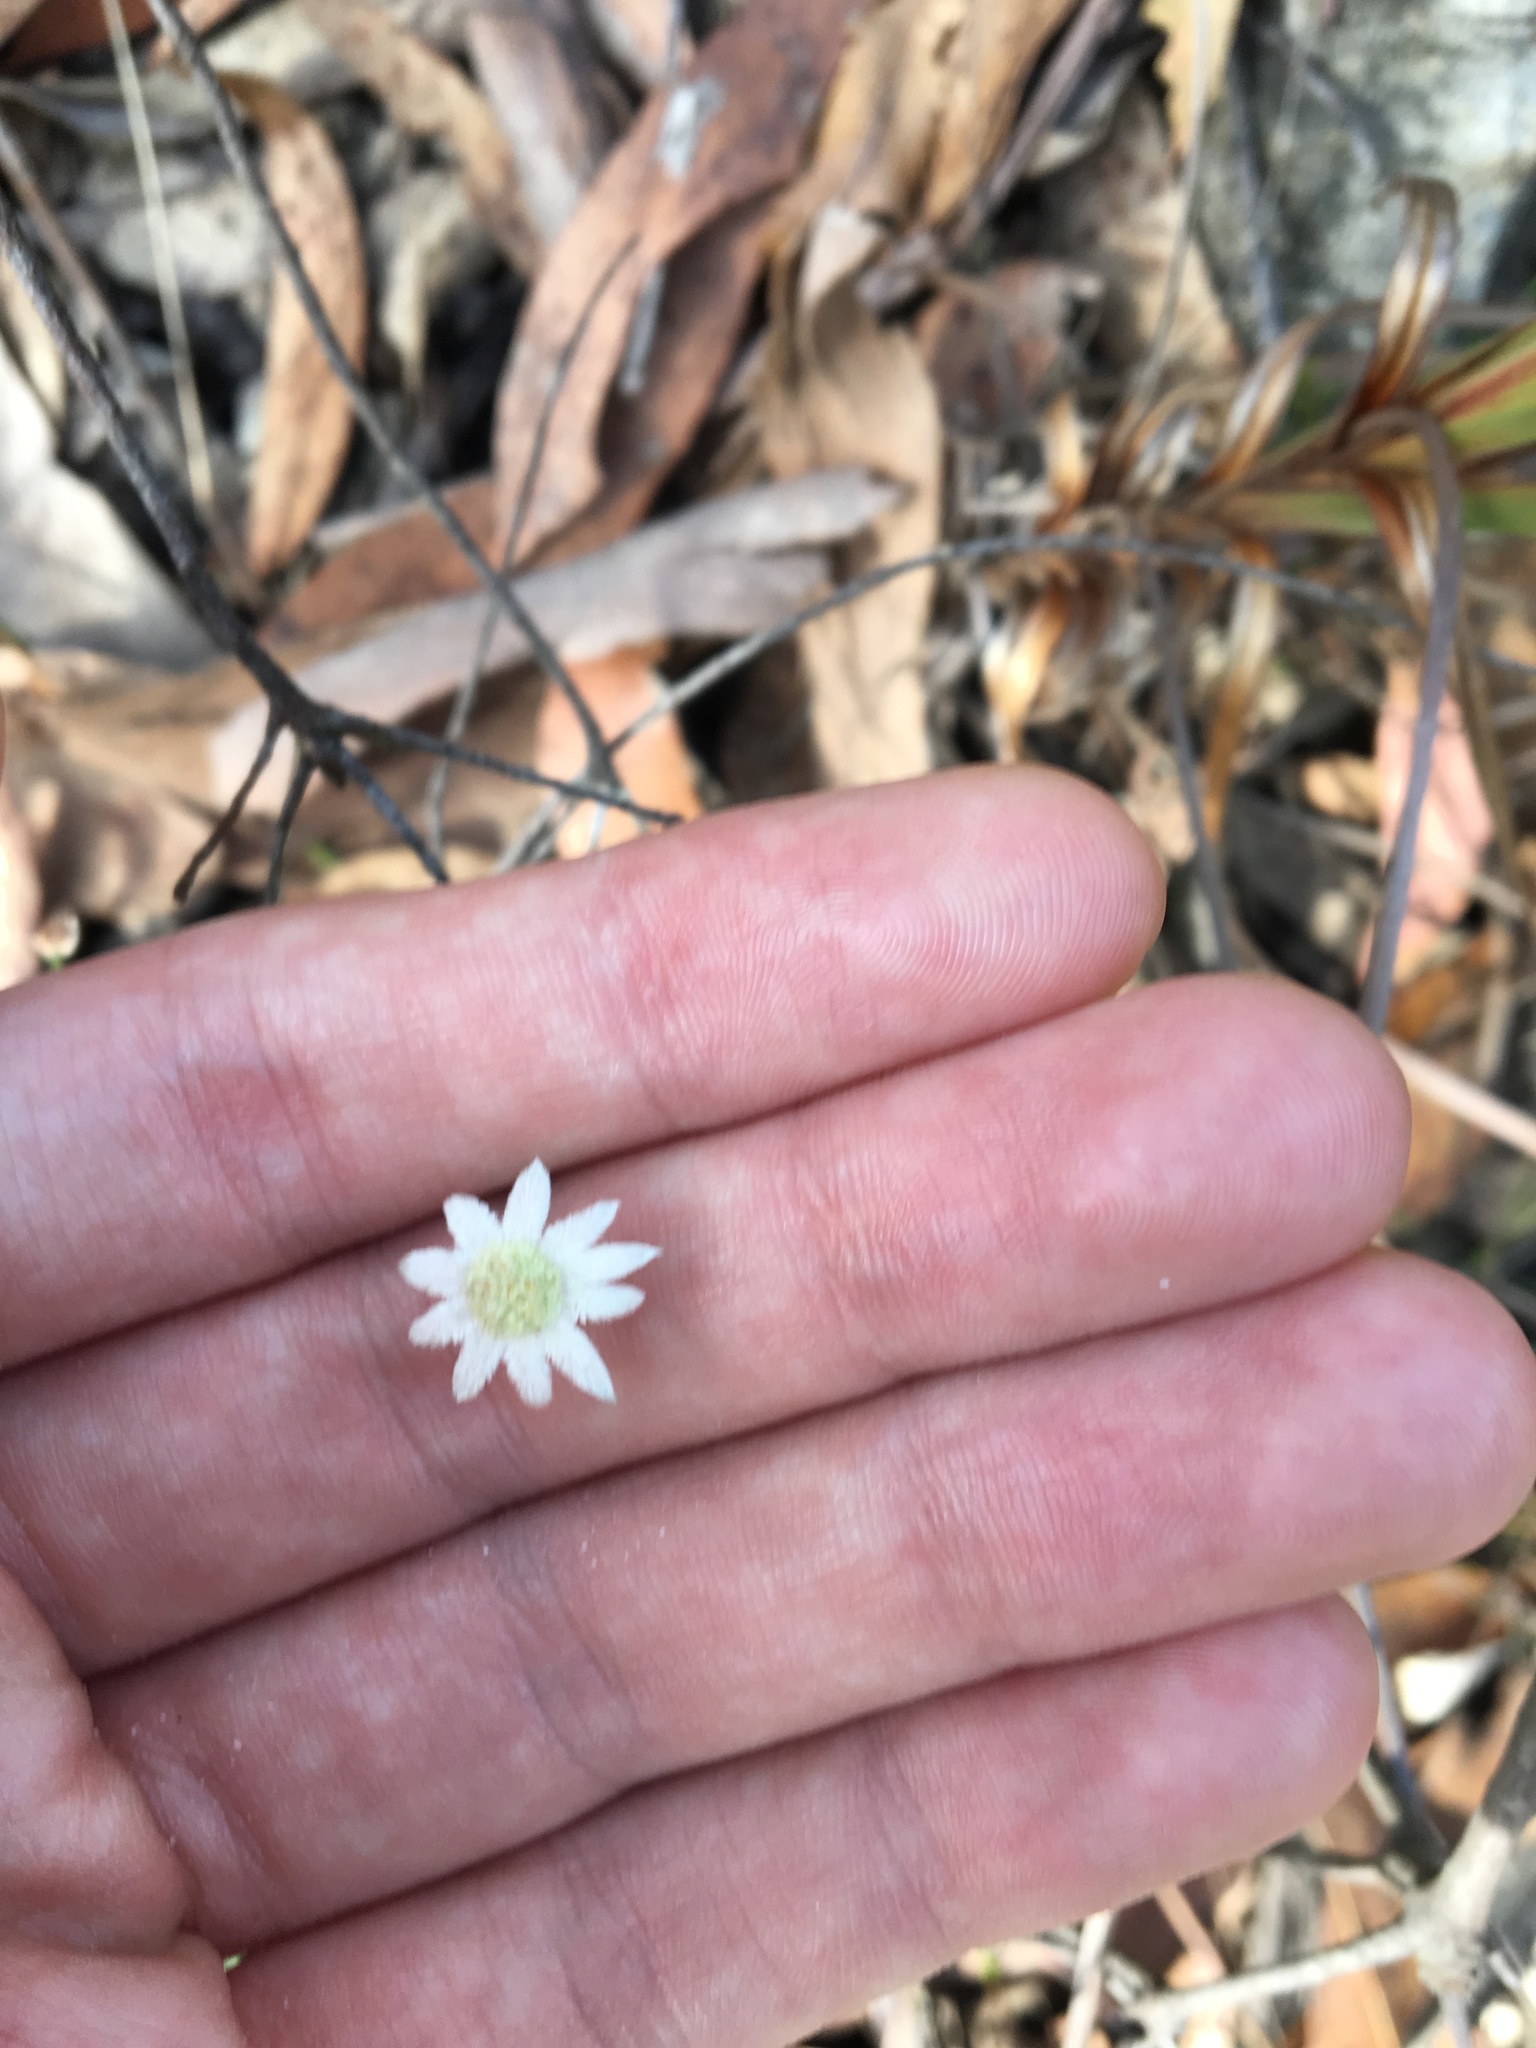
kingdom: Plantae
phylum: Tracheophyta
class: Magnoliopsida
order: Apiales
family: Apiaceae
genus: Actinotus
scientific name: Actinotus minor
